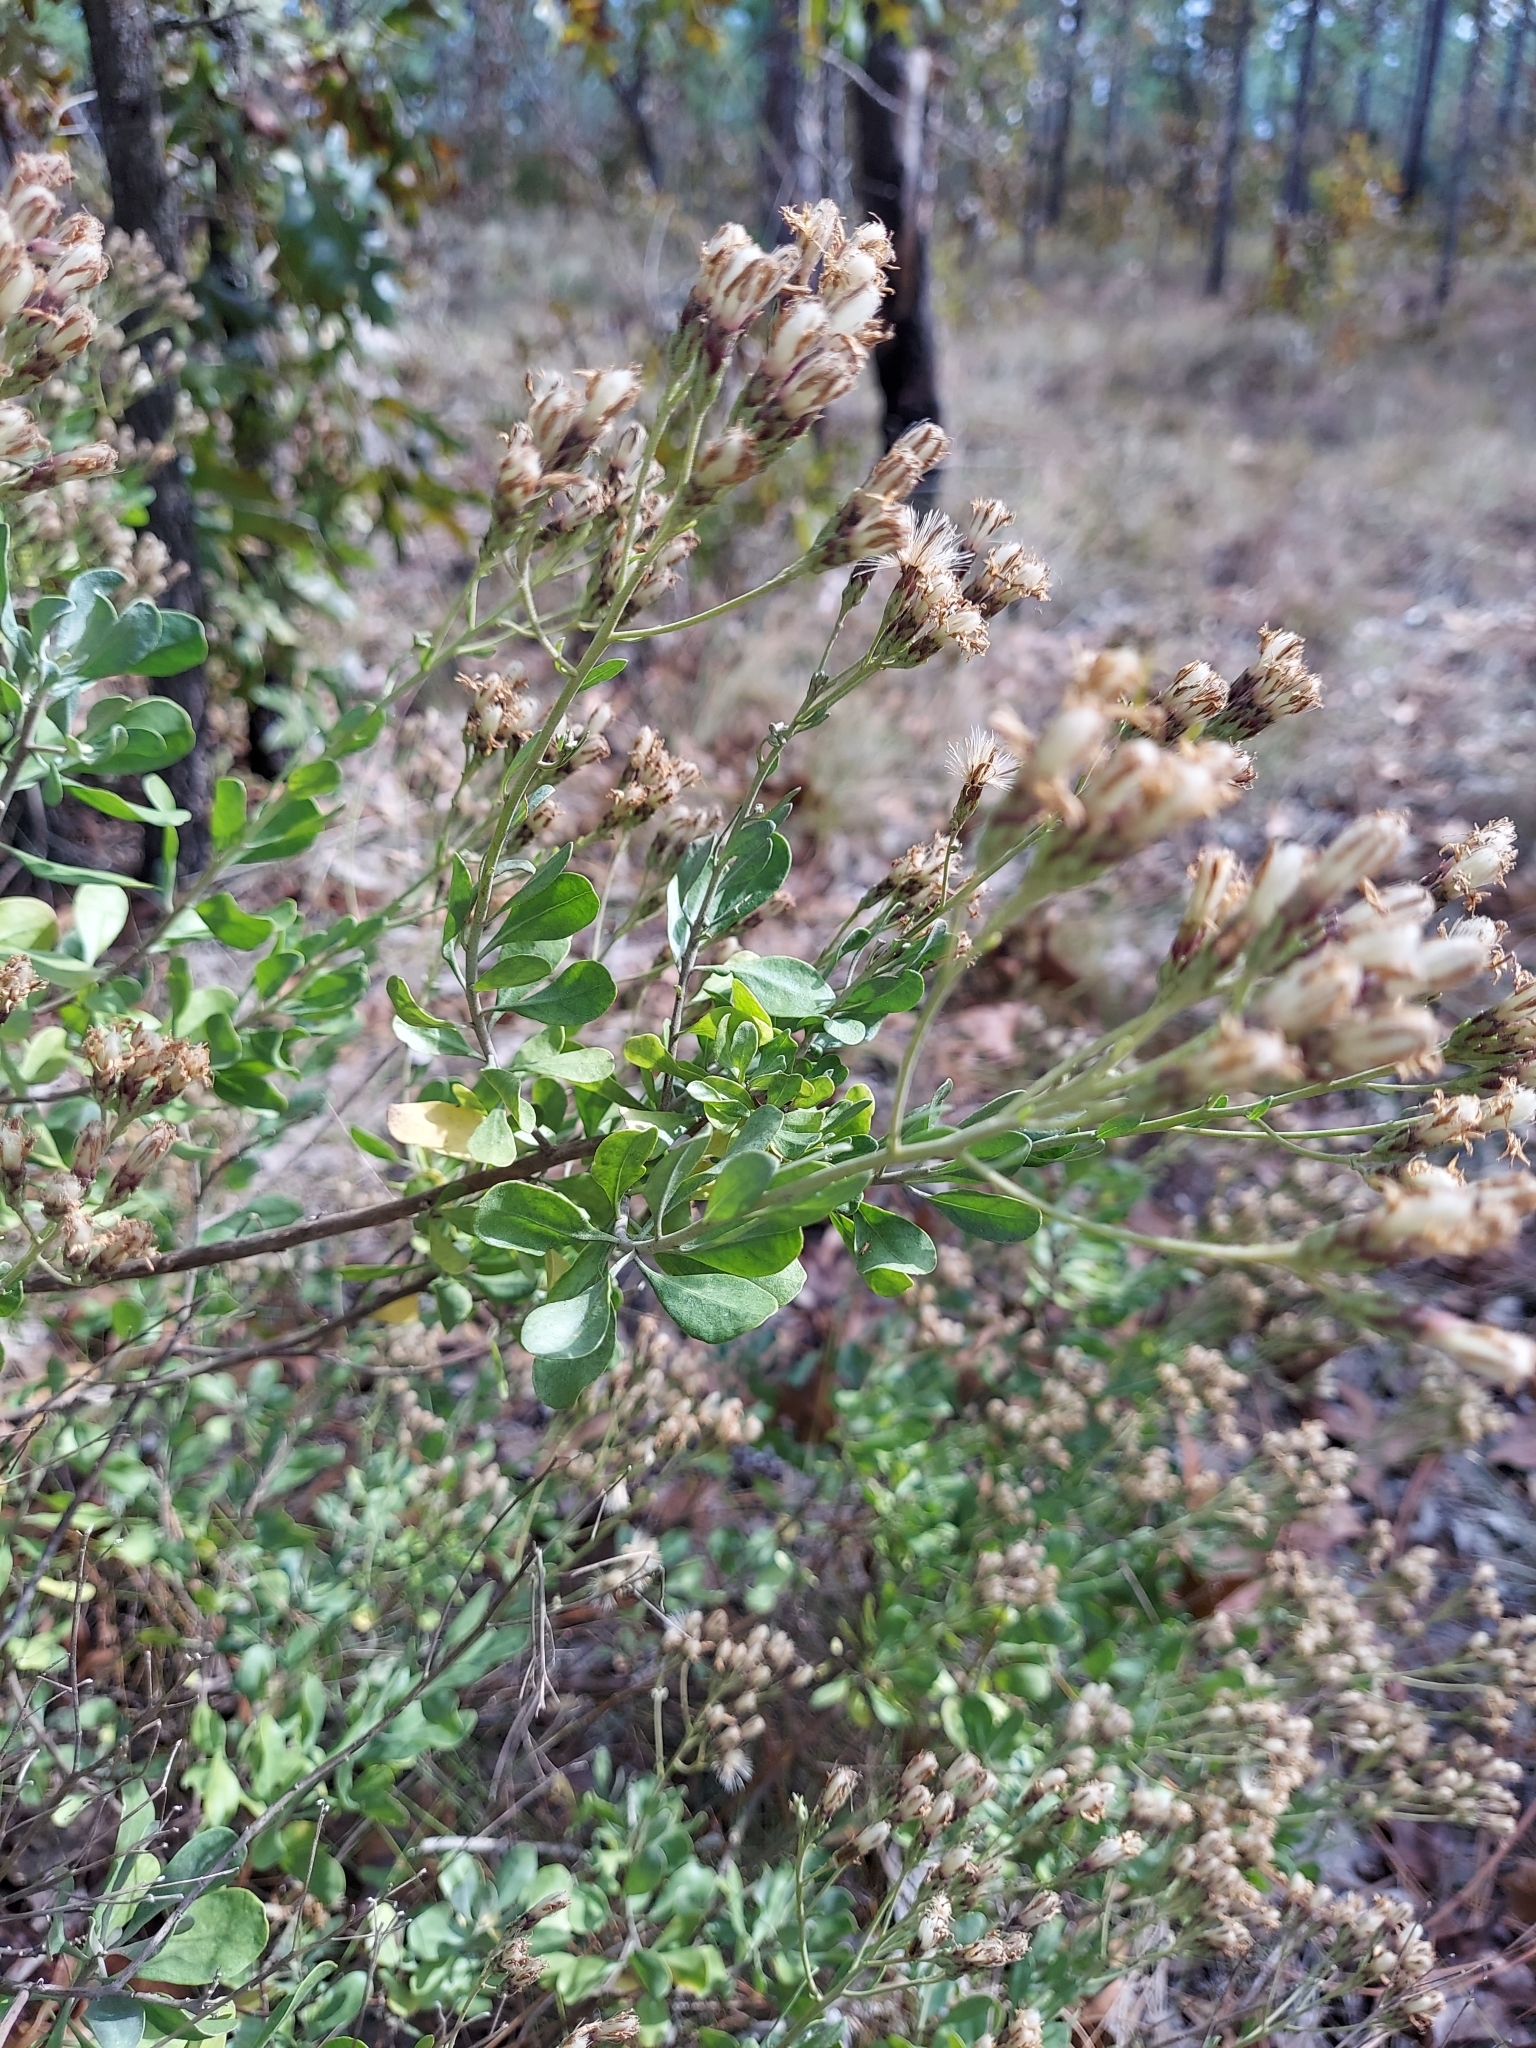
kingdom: Plantae
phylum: Tracheophyta
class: Magnoliopsida
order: Asterales
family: Asteraceae
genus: Garberia
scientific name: Garberia heterophylla
